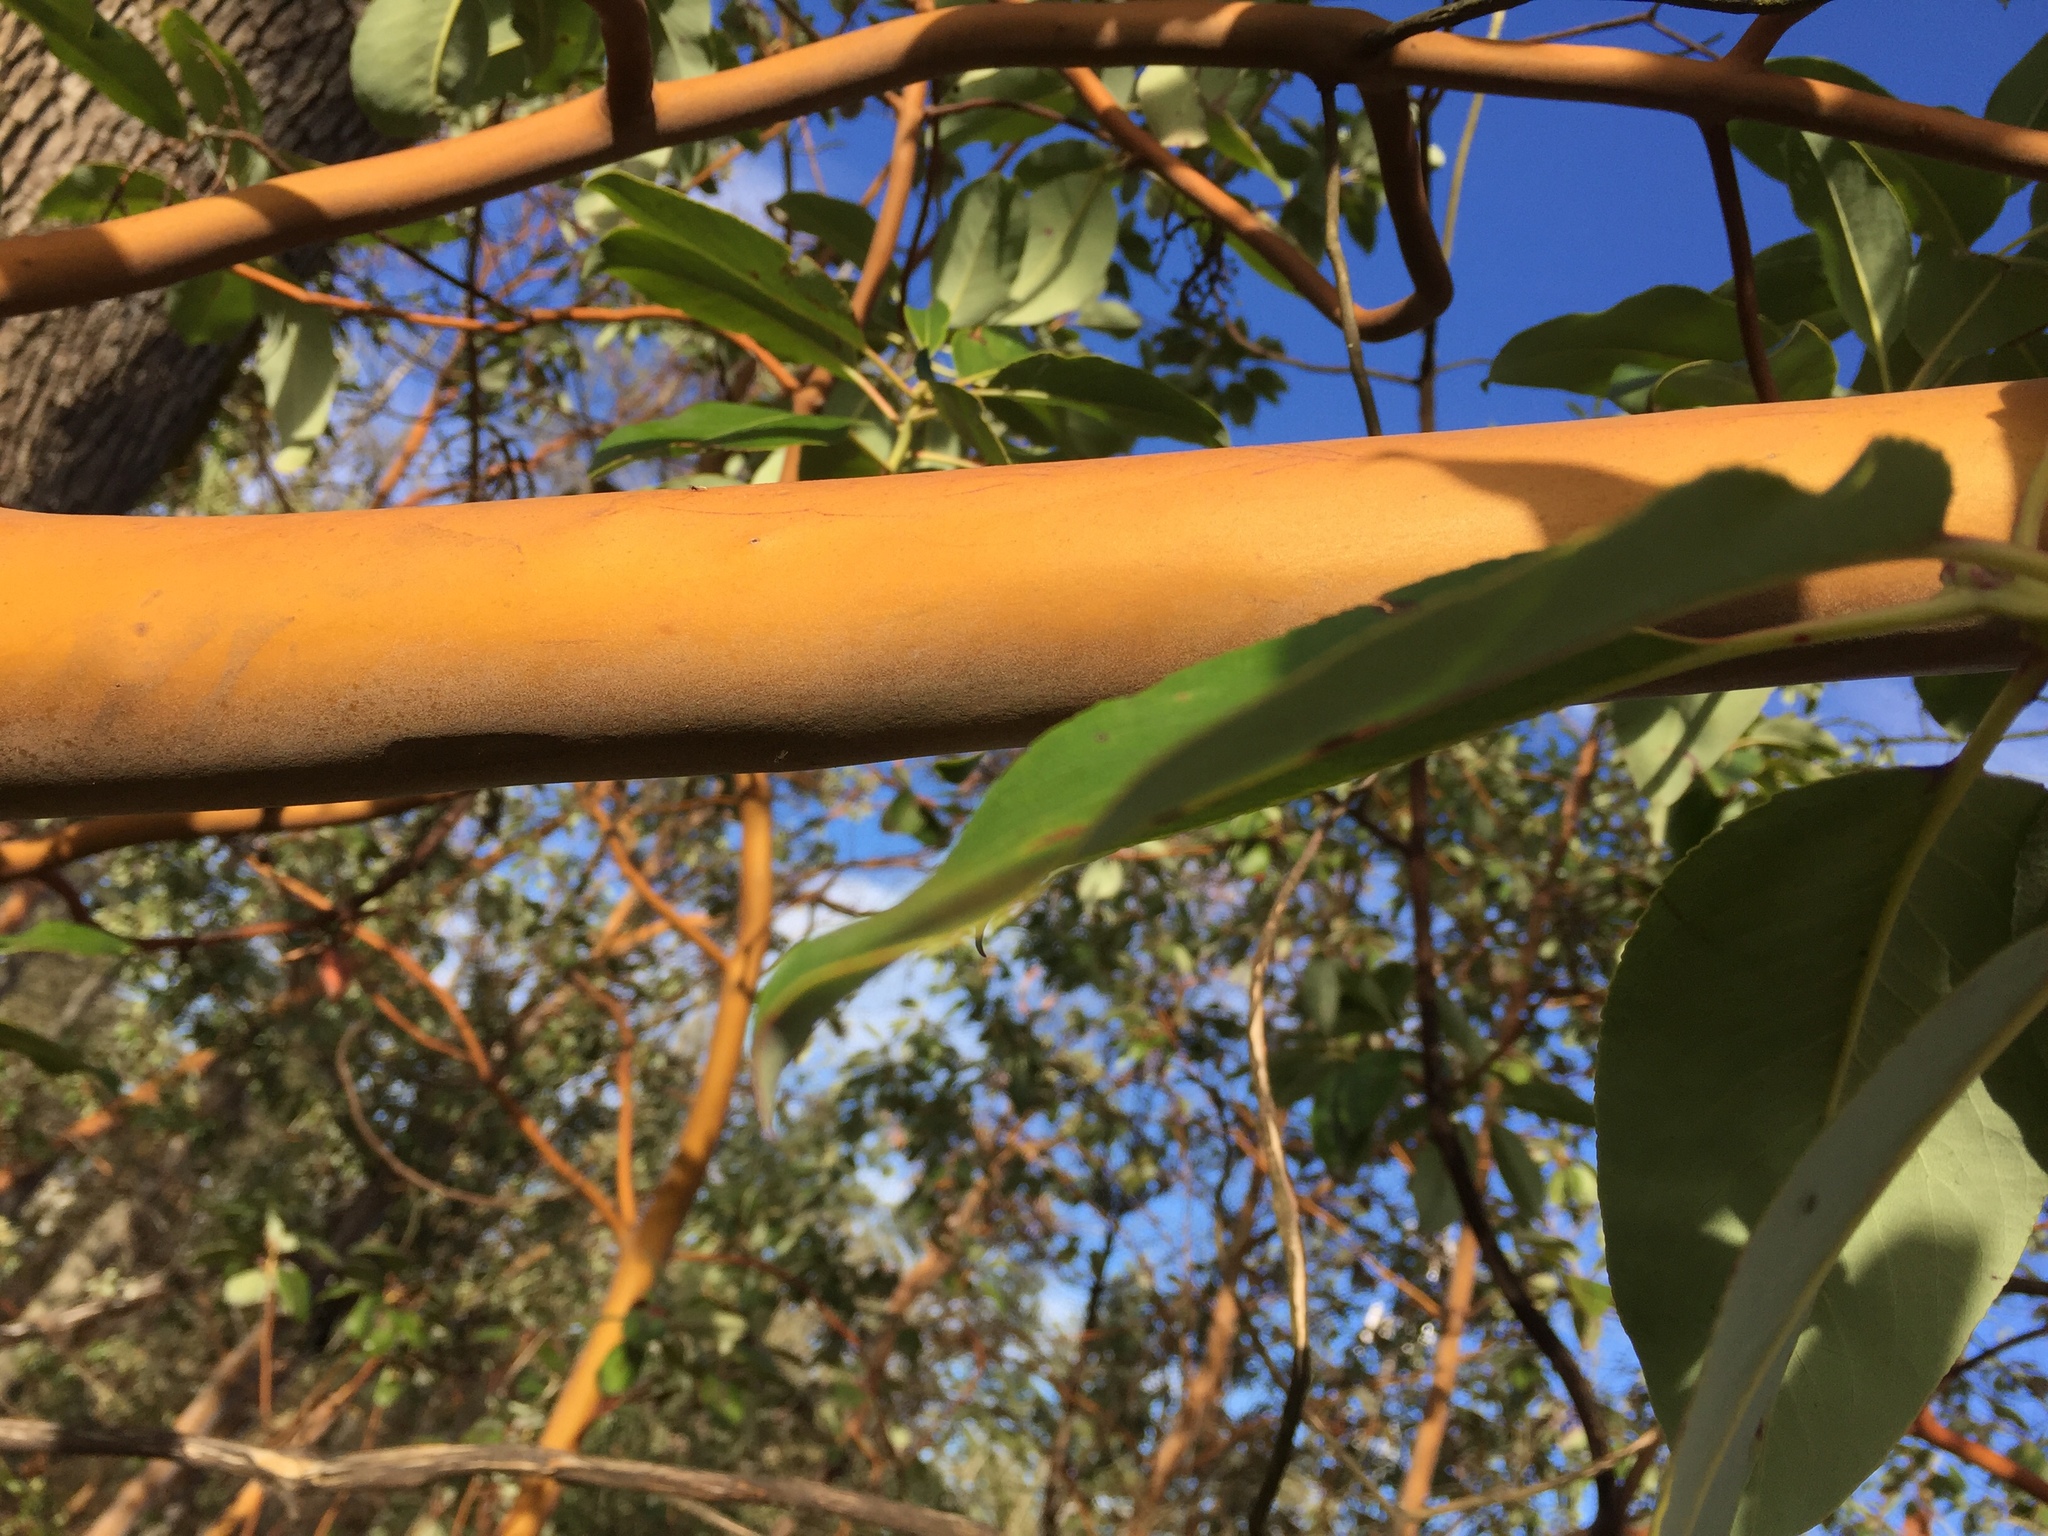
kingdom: Plantae
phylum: Tracheophyta
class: Magnoliopsida
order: Ericales
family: Ericaceae
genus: Arbutus
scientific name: Arbutus menziesii
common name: Pacific madrone
